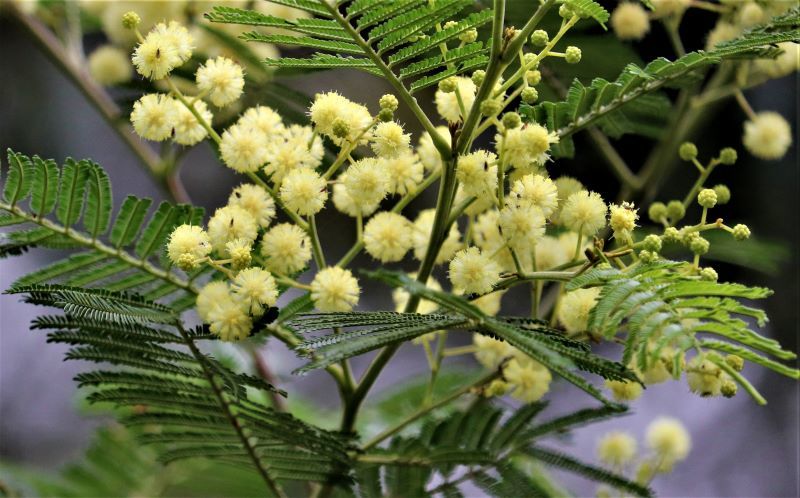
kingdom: Plantae
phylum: Tracheophyta
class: Magnoliopsida
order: Fabales
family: Fabaceae
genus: Acacia
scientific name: Acacia mearnsii
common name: Black wattle
